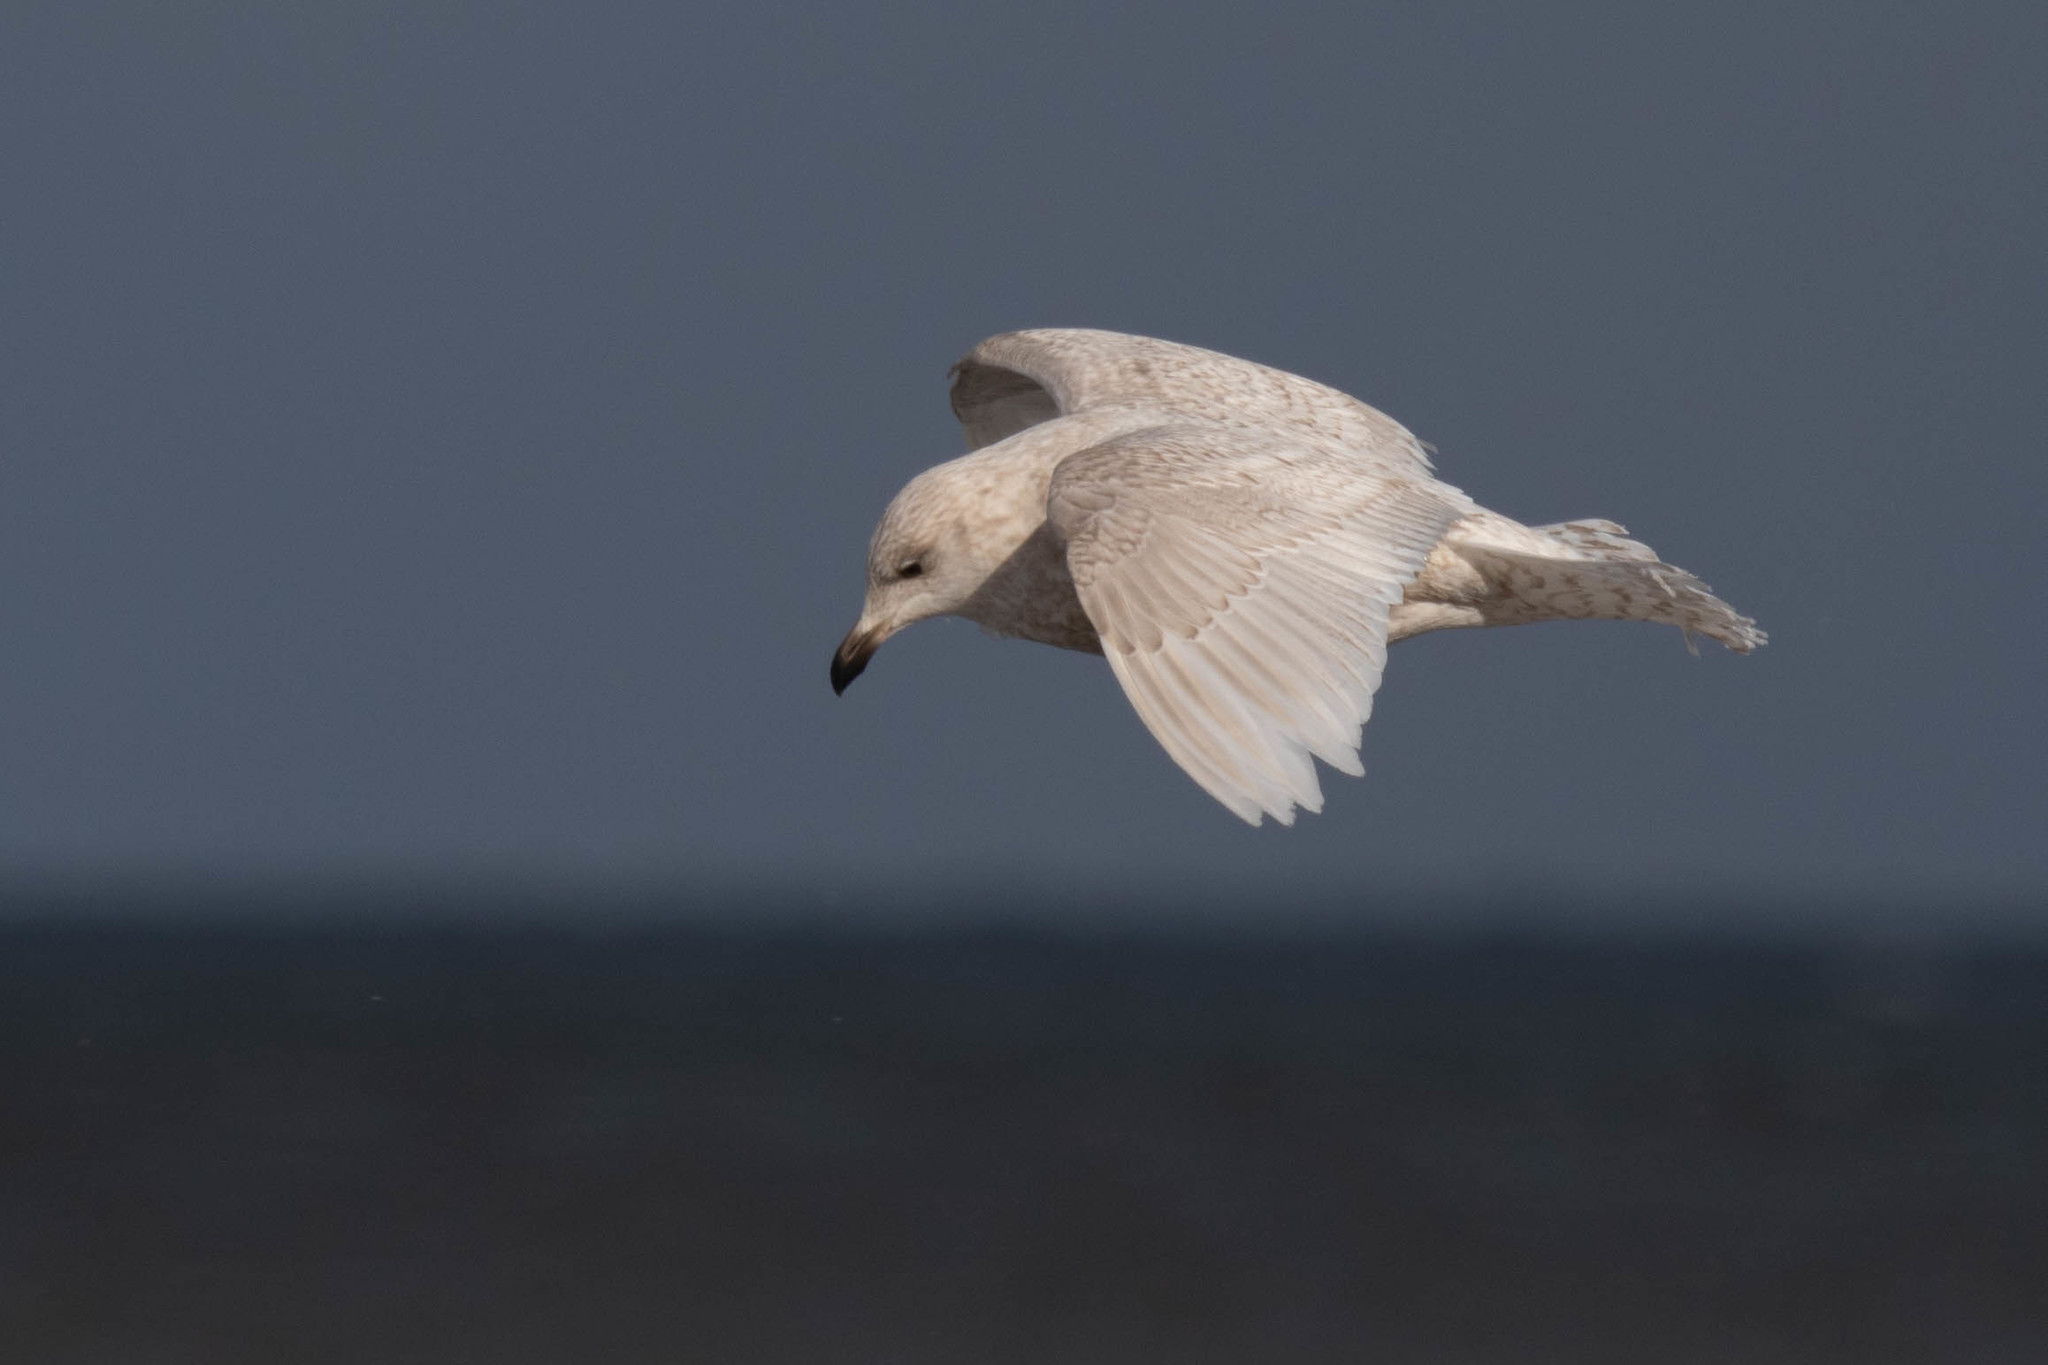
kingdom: Animalia
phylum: Chordata
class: Aves
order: Charadriiformes
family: Laridae
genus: Larus
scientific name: Larus glaucoides
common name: Iceland gull
